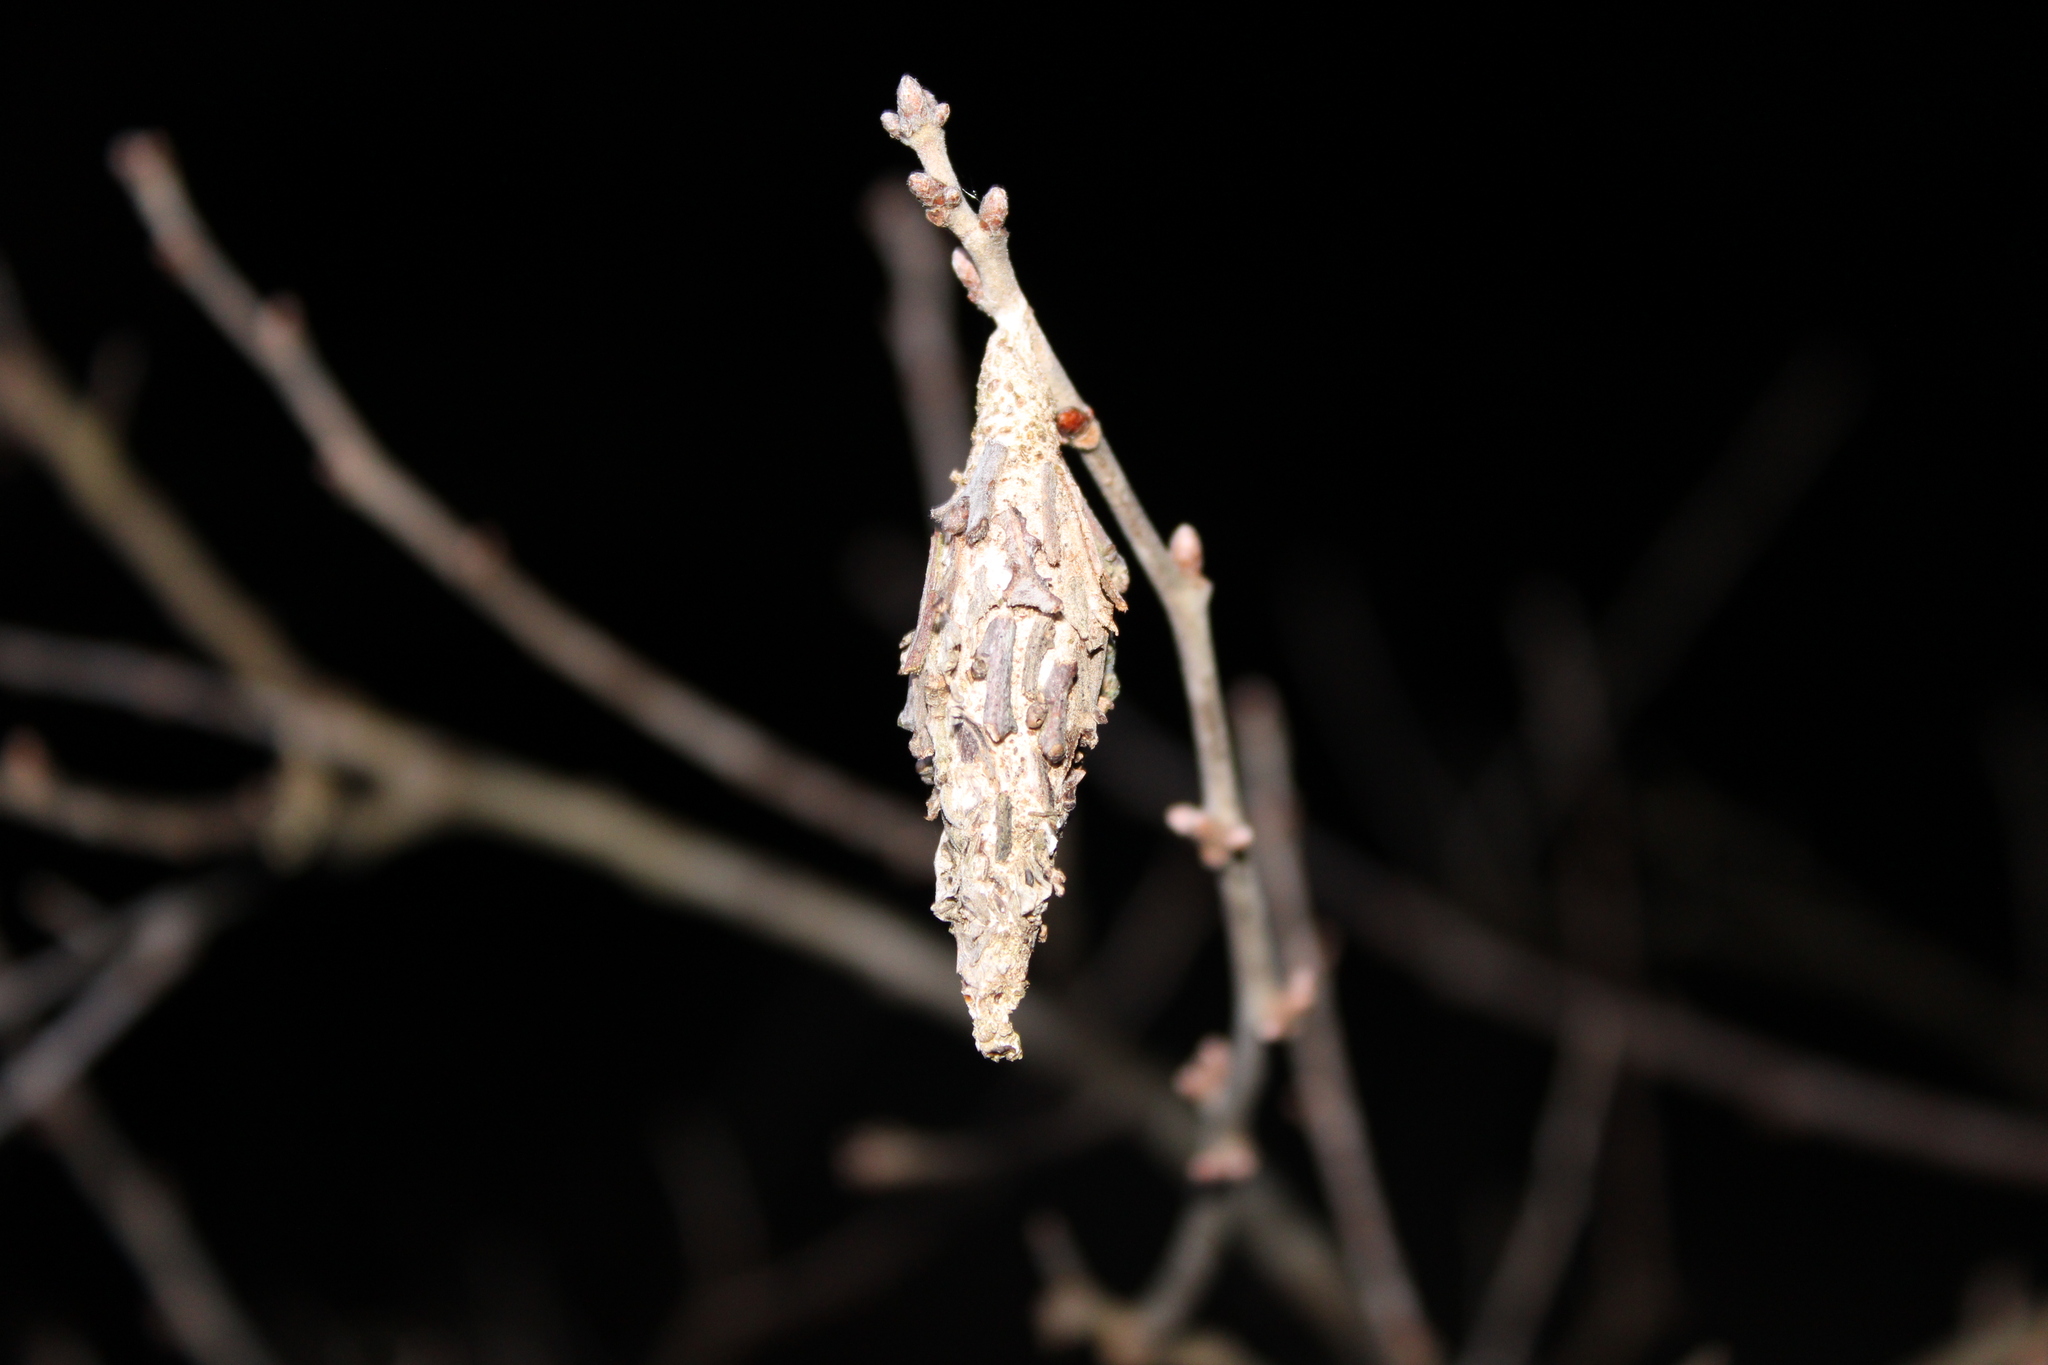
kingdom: Animalia
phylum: Arthropoda
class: Insecta
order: Lepidoptera
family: Psychidae
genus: Thyridopteryx
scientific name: Thyridopteryx ephemeraeformis
